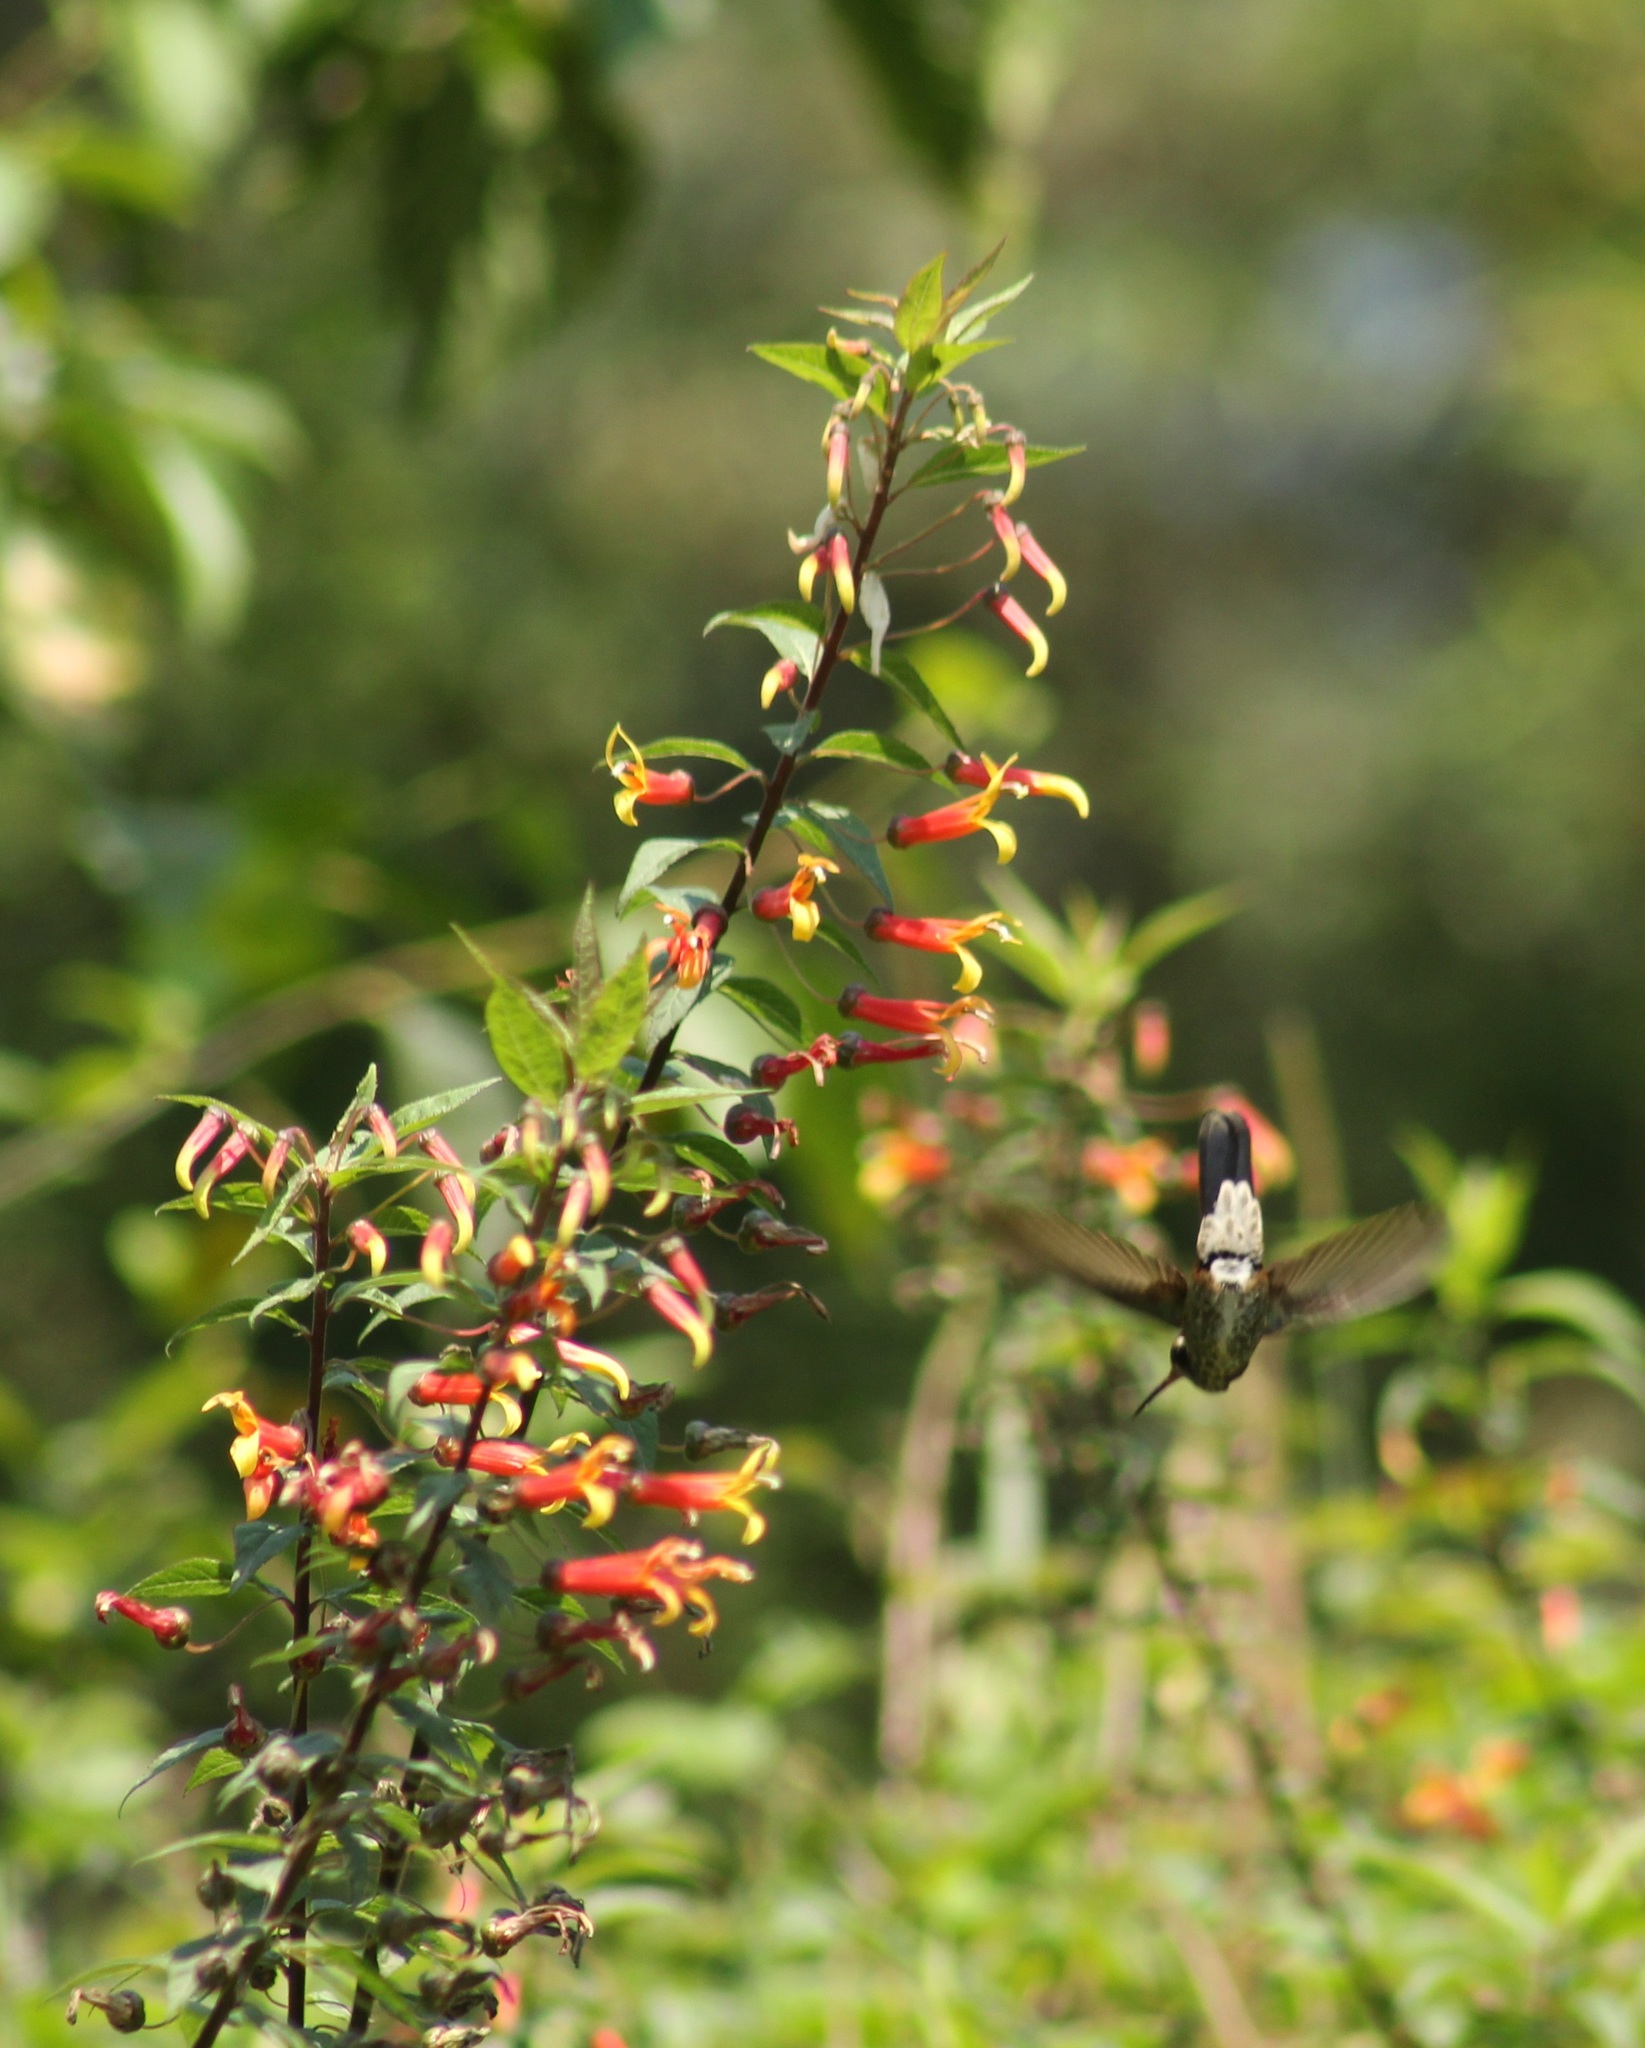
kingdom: Animalia
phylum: Chordata
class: Aves
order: Apodiformes
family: Trochilidae
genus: Basilinna
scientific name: Basilinna leucotis
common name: White-eared hummingbird
